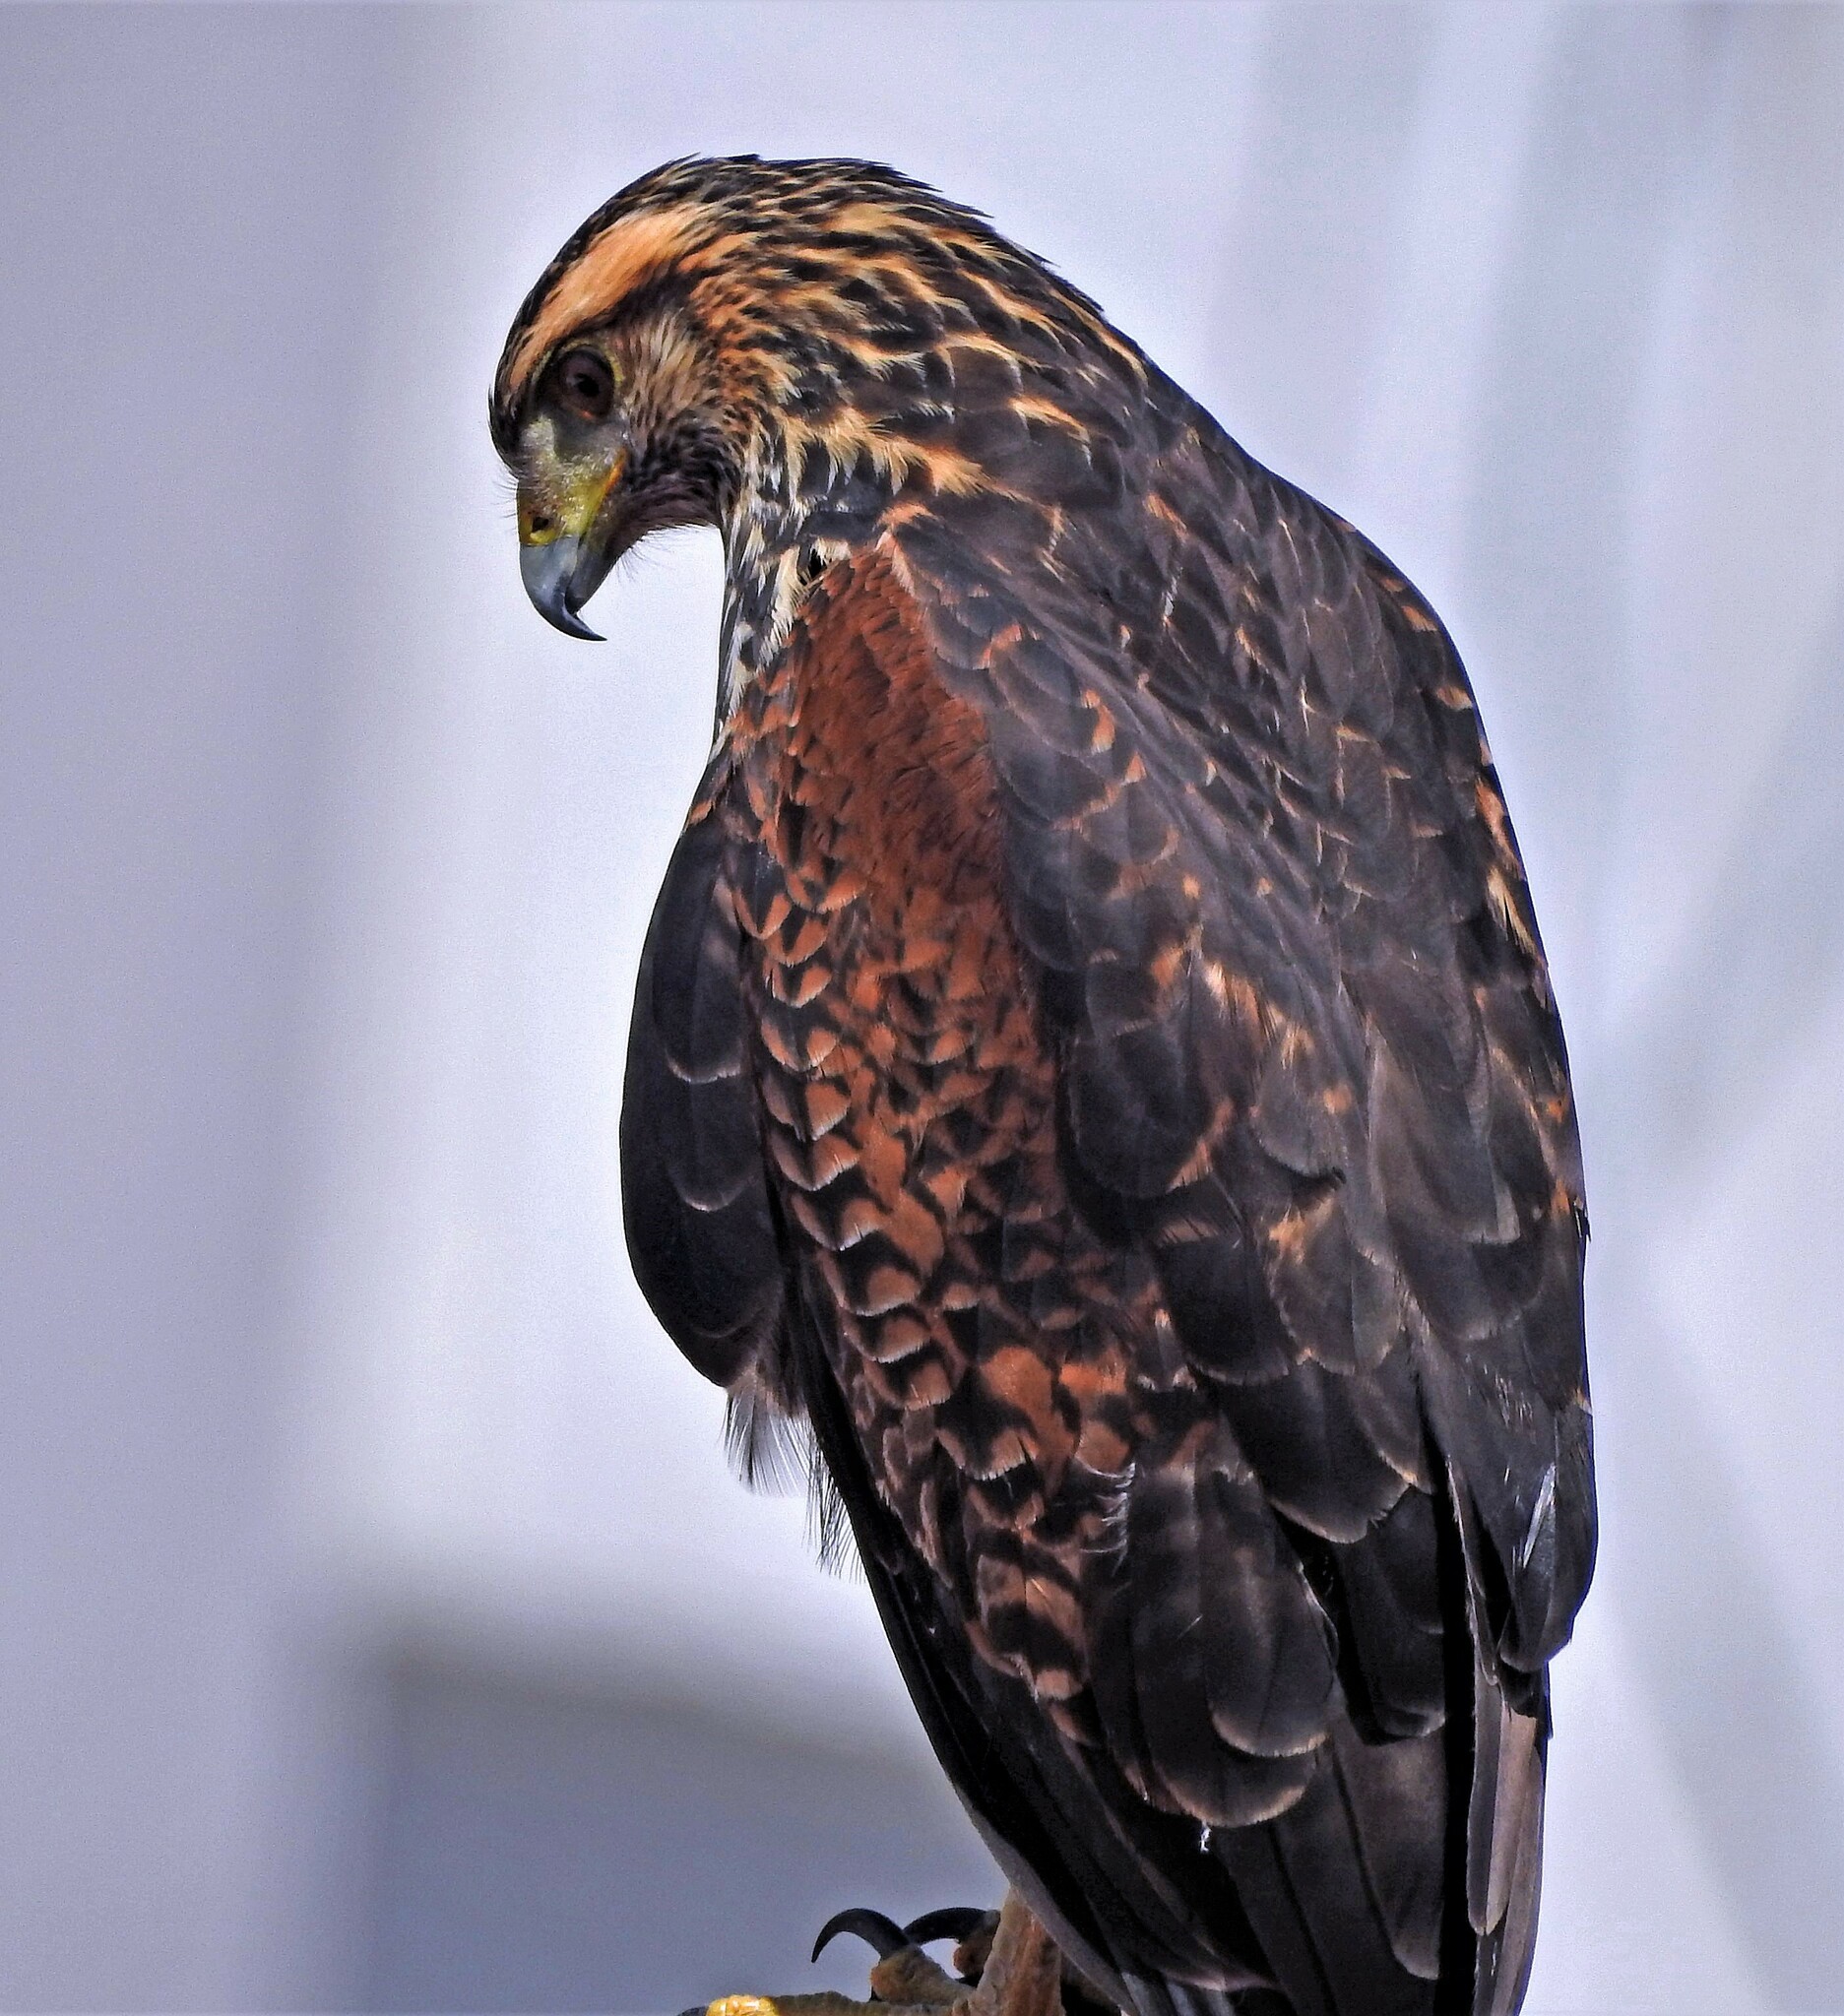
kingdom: Animalia
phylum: Chordata
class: Aves
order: Accipitriformes
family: Accipitridae
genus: Parabuteo
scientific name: Parabuteo unicinctus
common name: Harris's hawk
